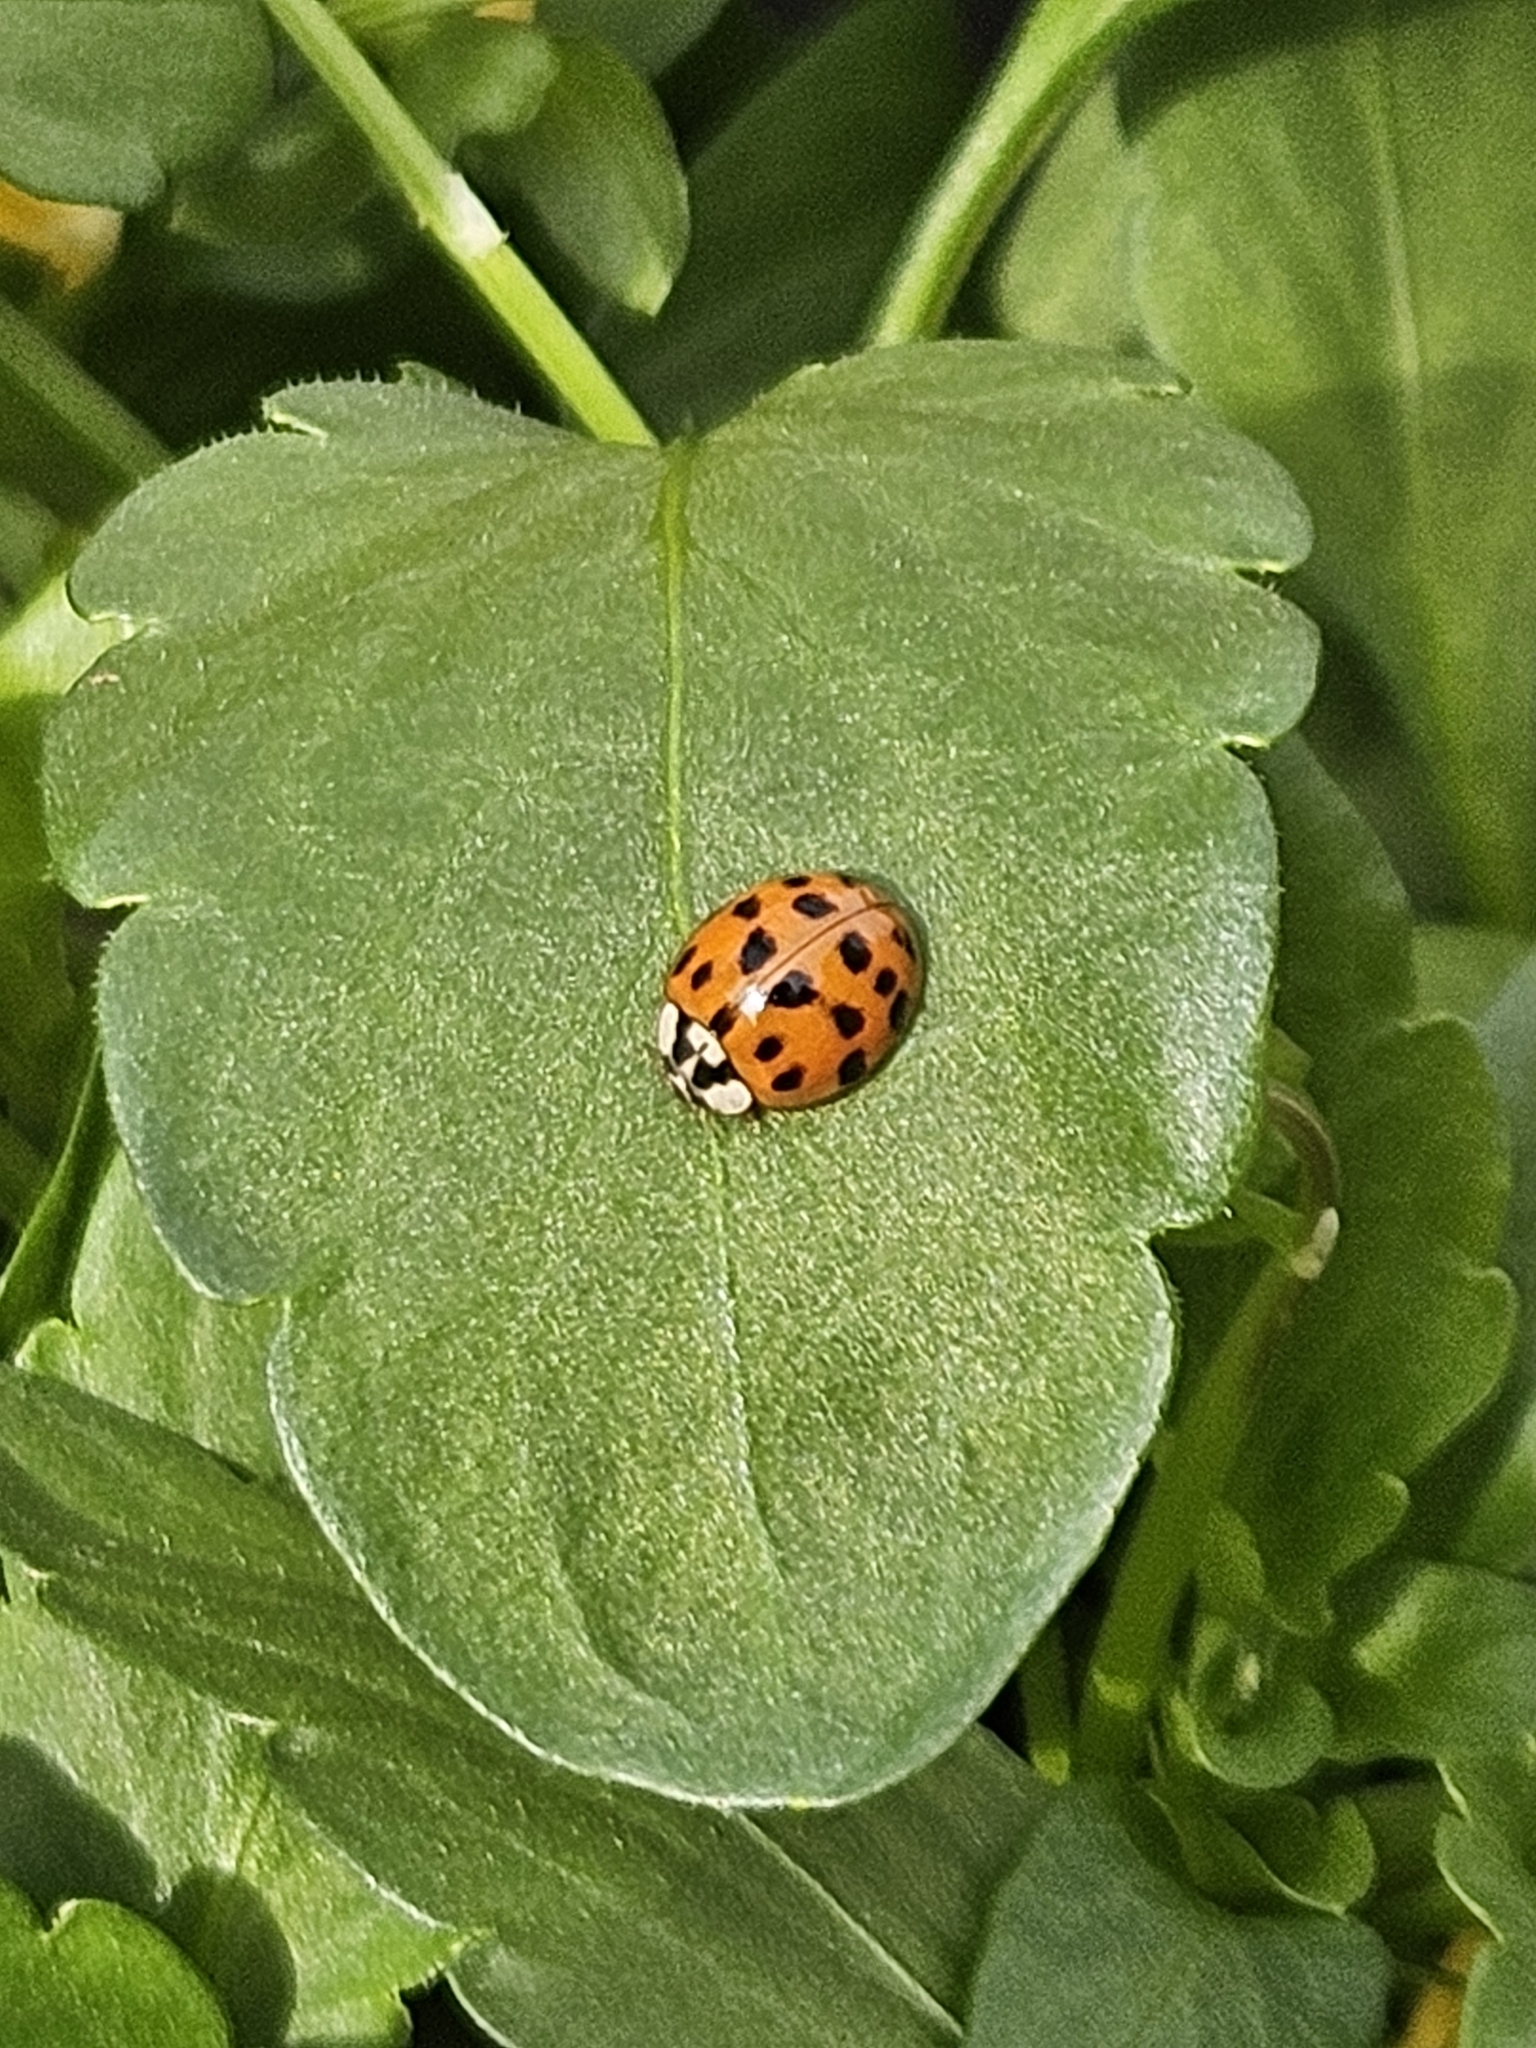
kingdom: Animalia
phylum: Arthropoda
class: Insecta
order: Coleoptera
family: Coccinellidae
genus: Harmonia
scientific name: Harmonia axyridis
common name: Harlequin ladybird
